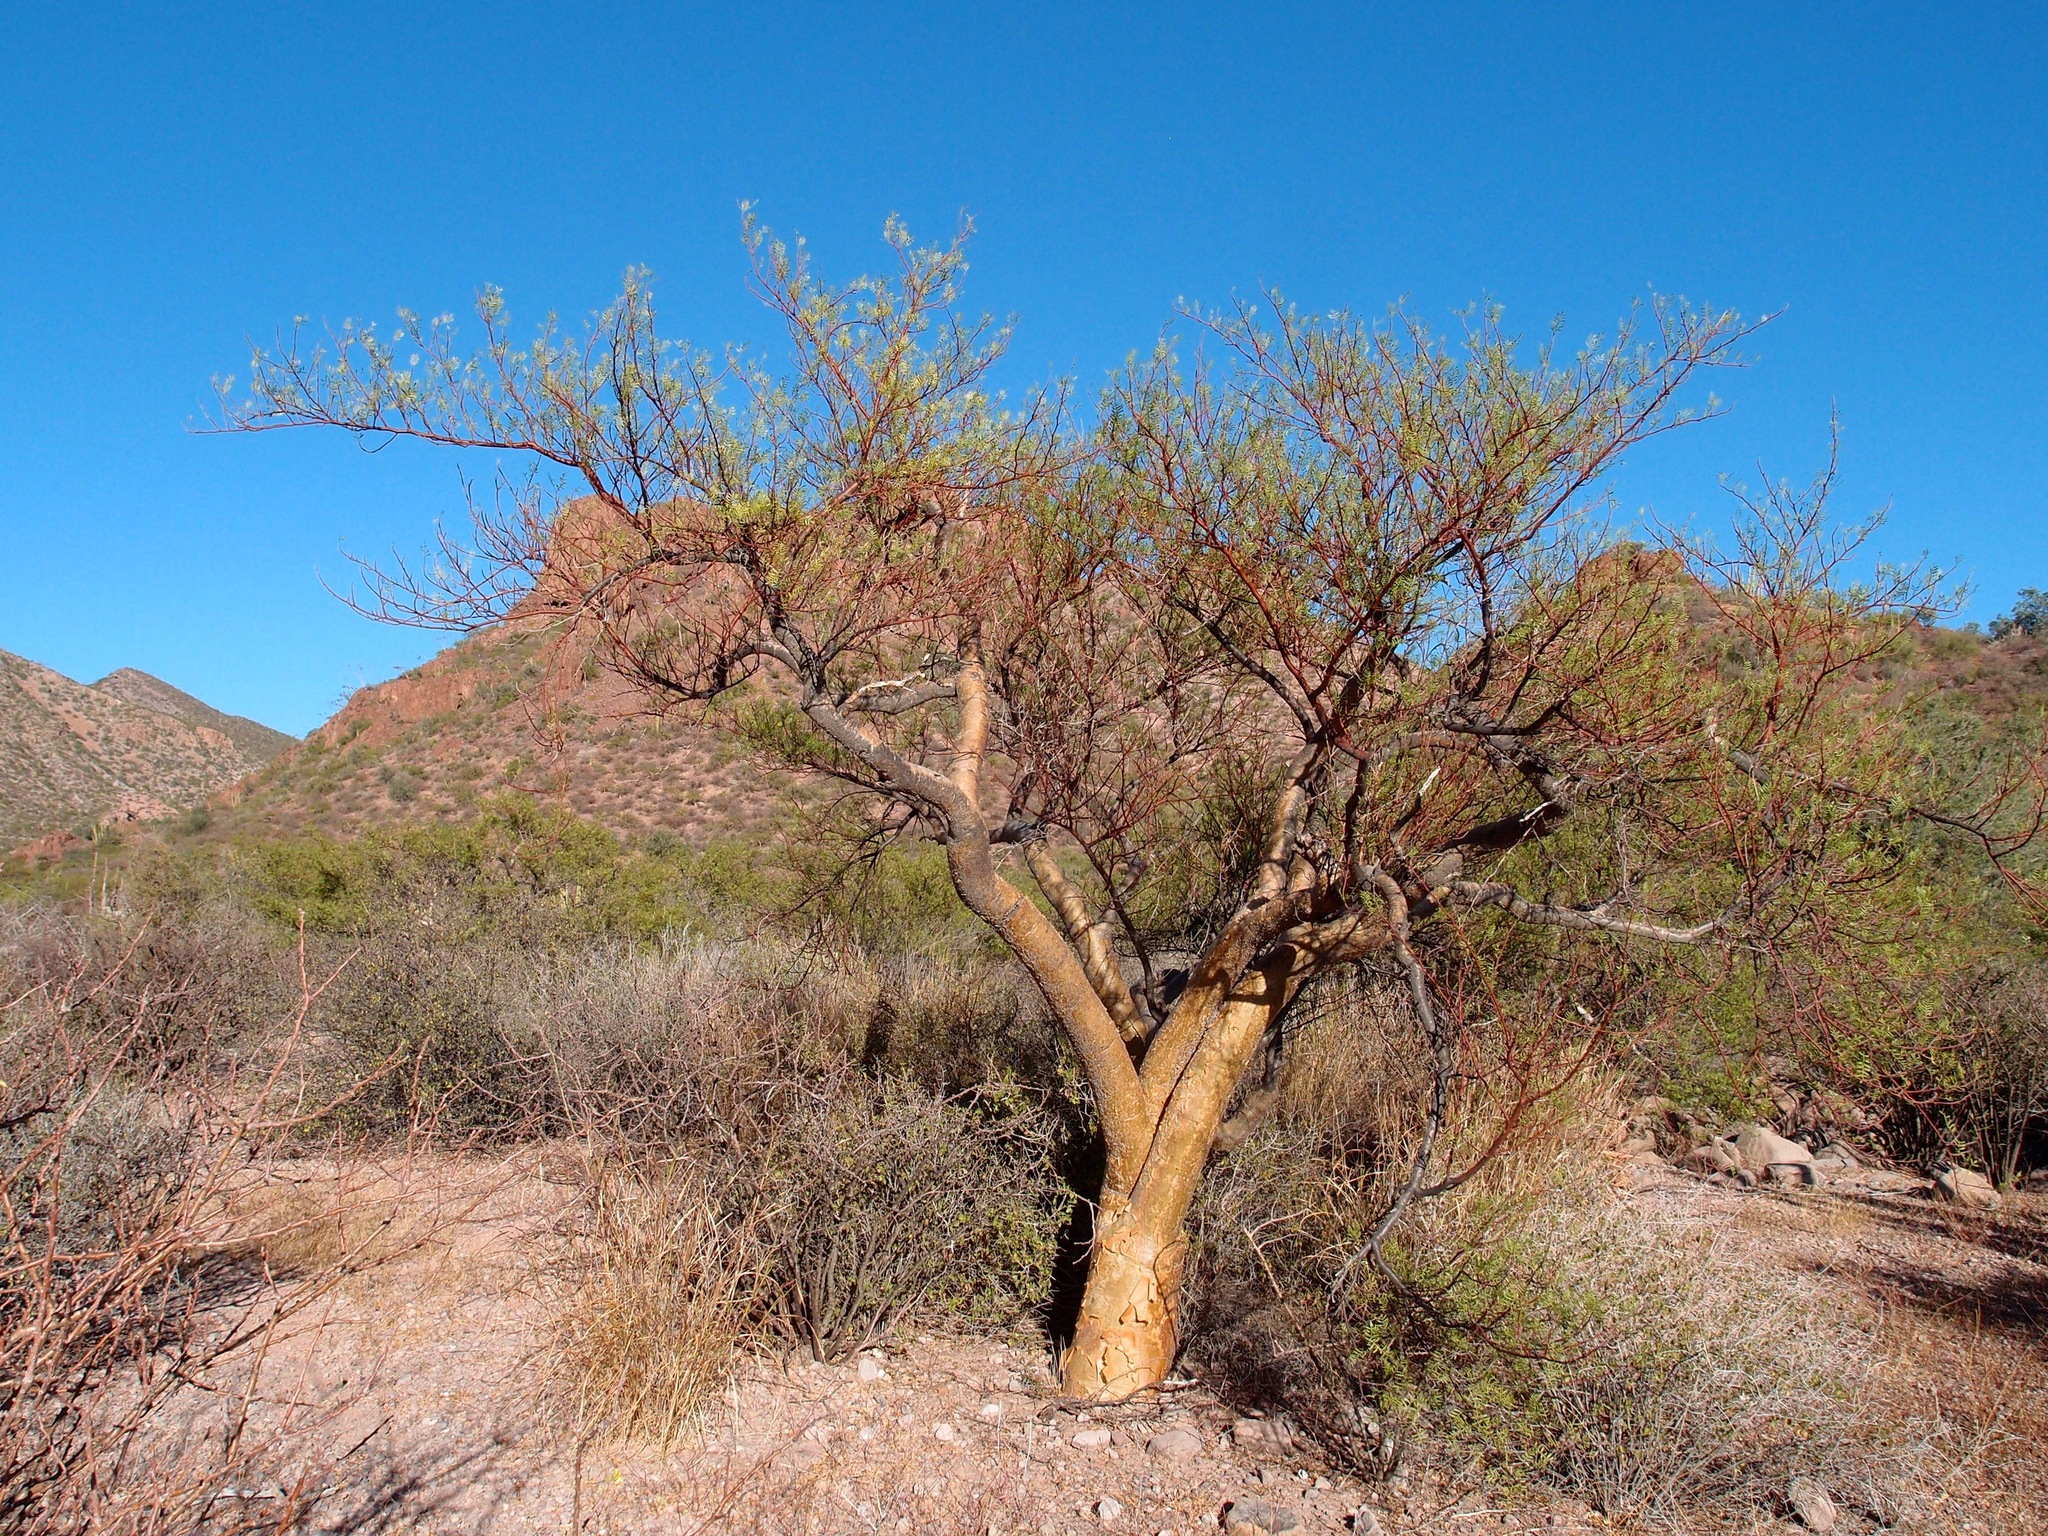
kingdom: Plantae
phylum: Tracheophyta
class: Magnoliopsida
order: Sapindales
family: Burseraceae
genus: Bursera
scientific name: Bursera microphylla
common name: Elephant tree
